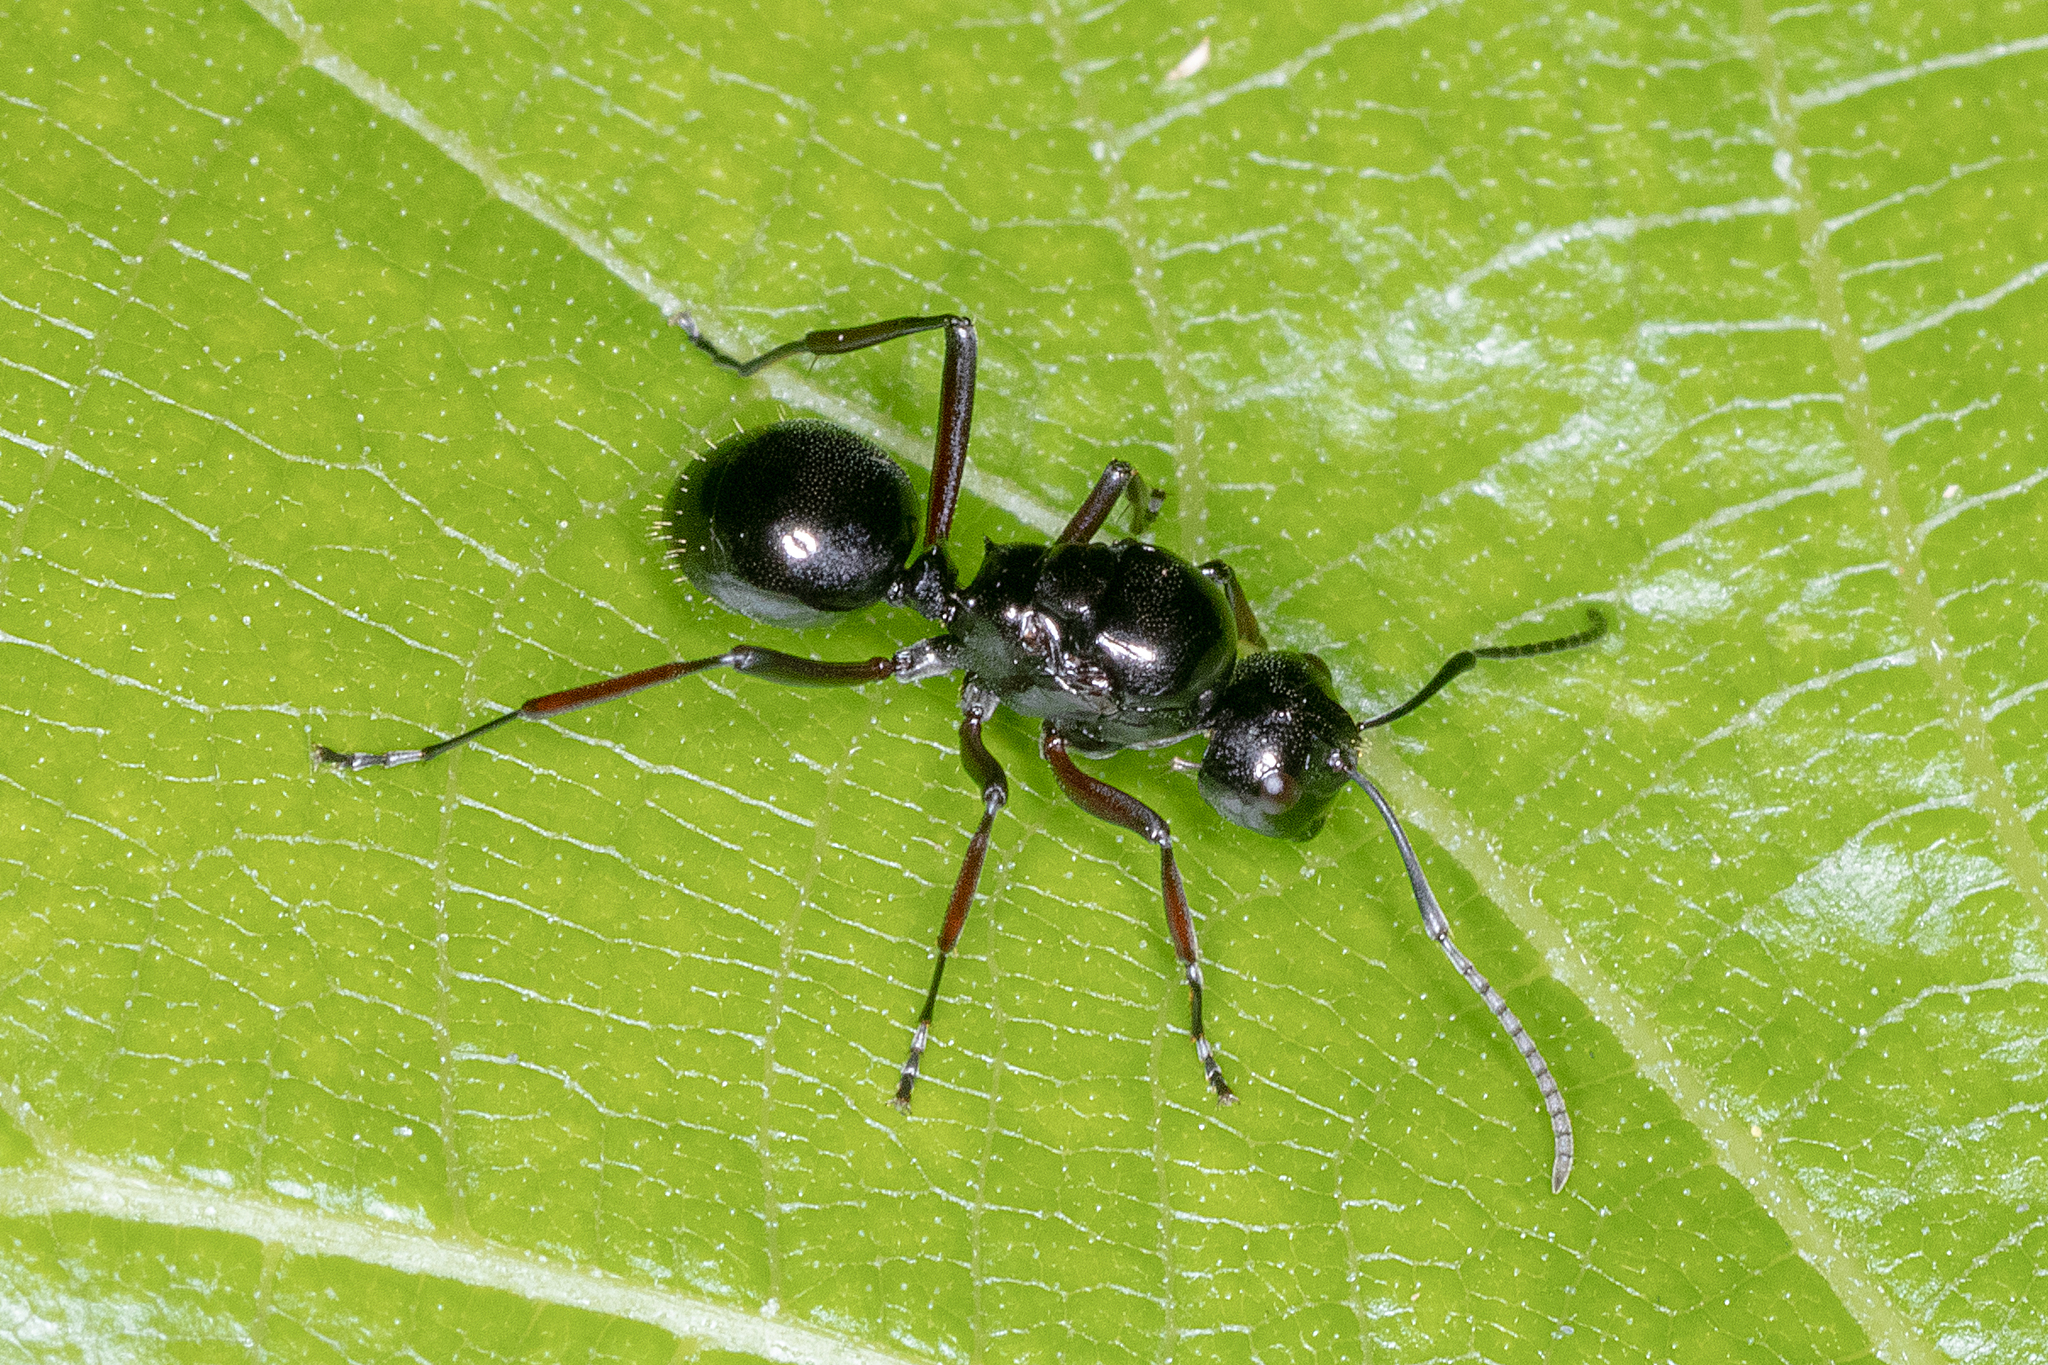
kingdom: Animalia
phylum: Arthropoda
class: Insecta
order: Hymenoptera
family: Formicidae
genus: Polyrhachis
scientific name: Polyrhachis australis
